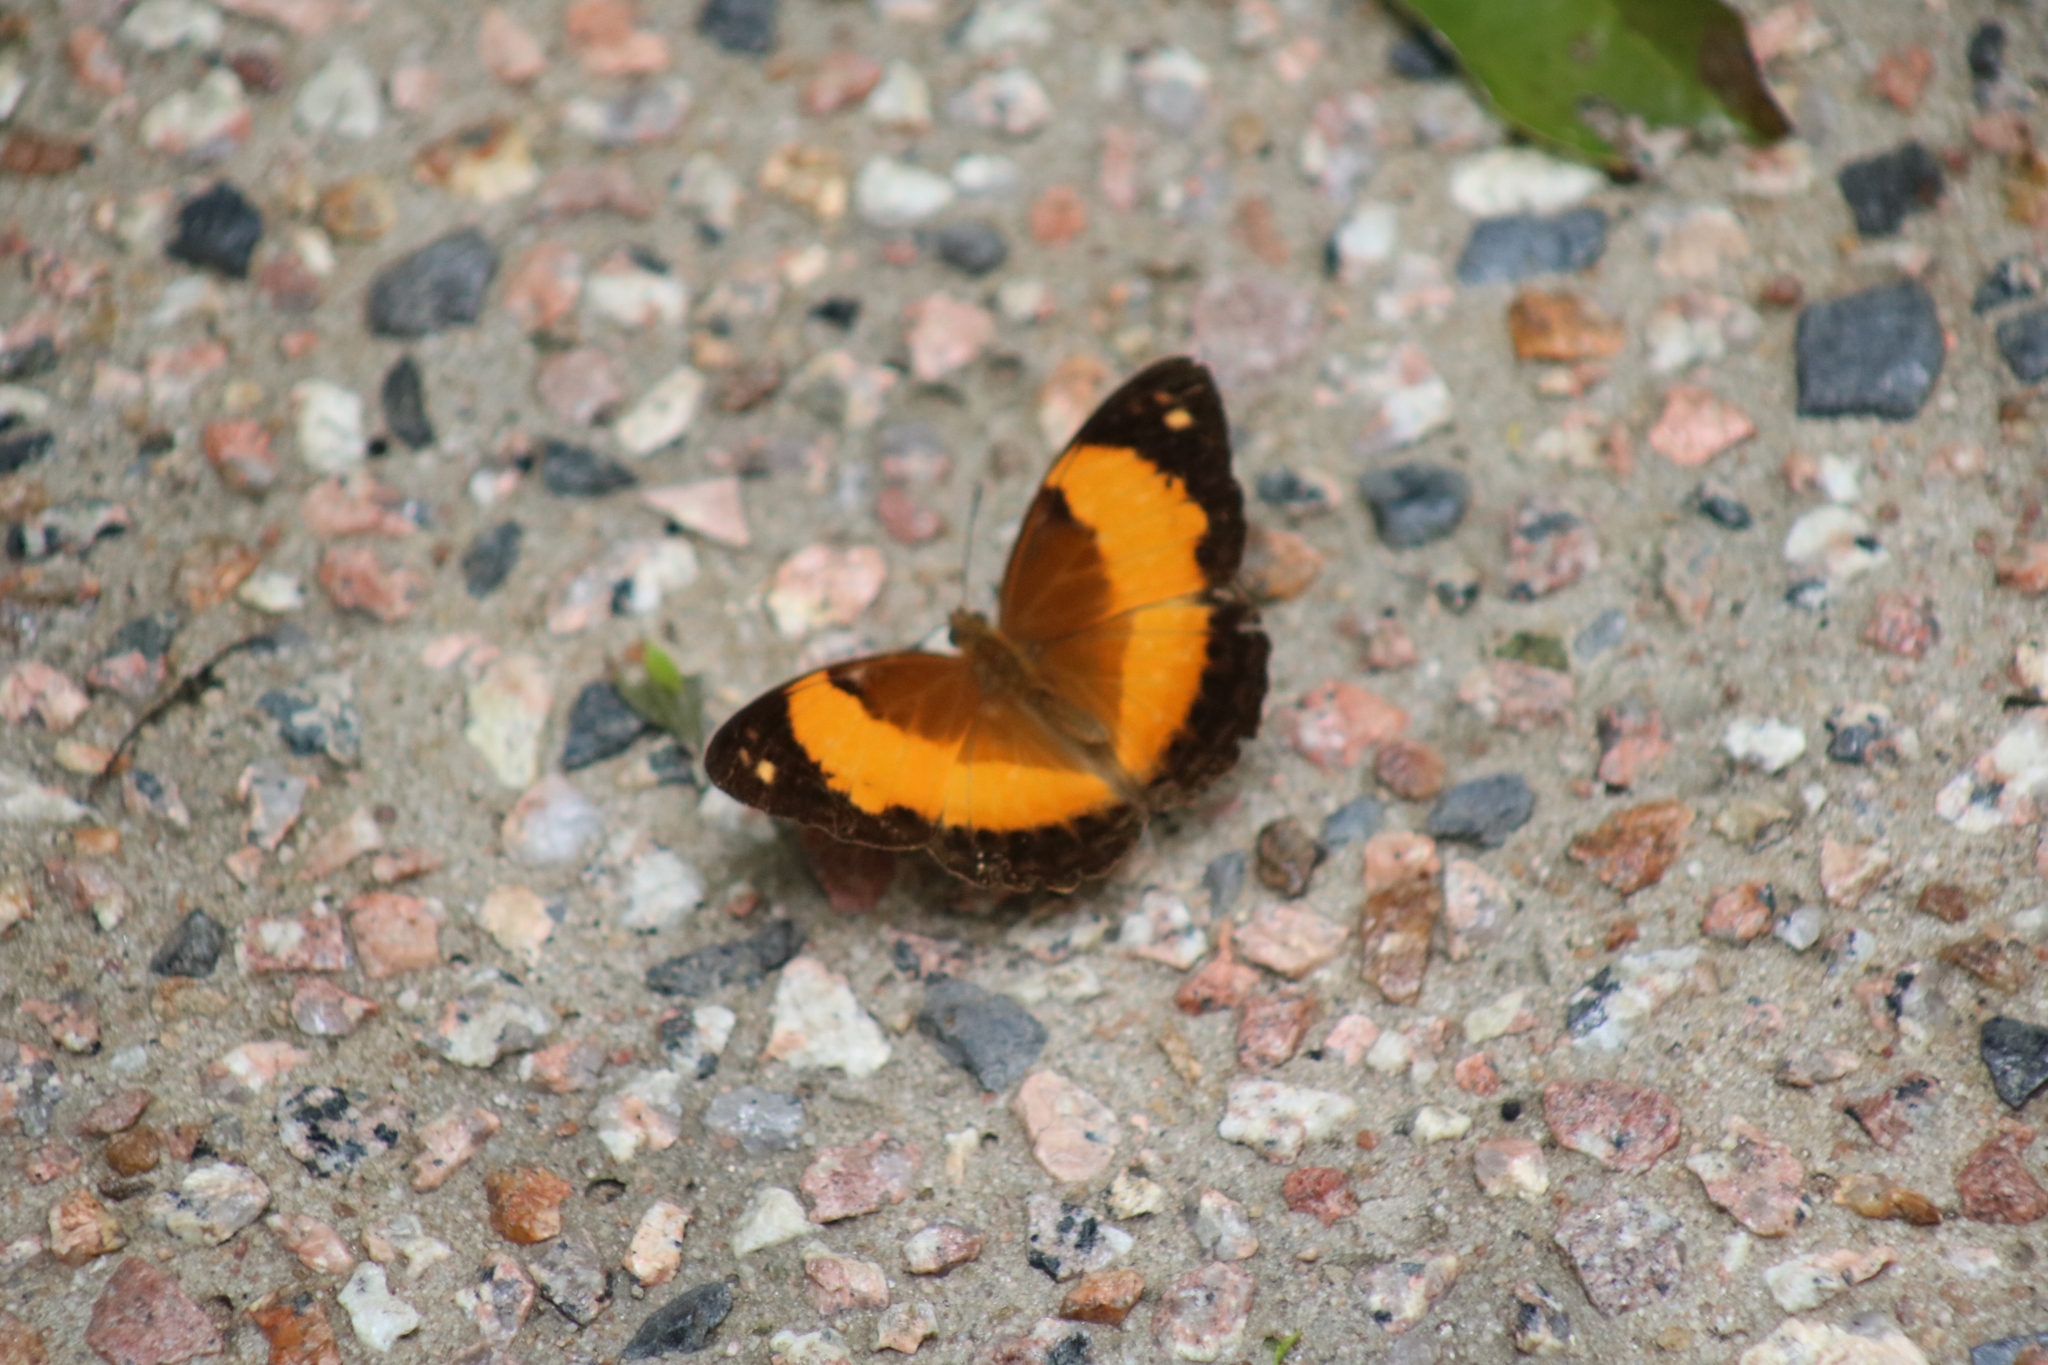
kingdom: Animalia
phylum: Arthropoda
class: Insecta
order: Lepidoptera
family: Nymphalidae
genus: Cupha
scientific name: Cupha prosope
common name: Bordered rustic
